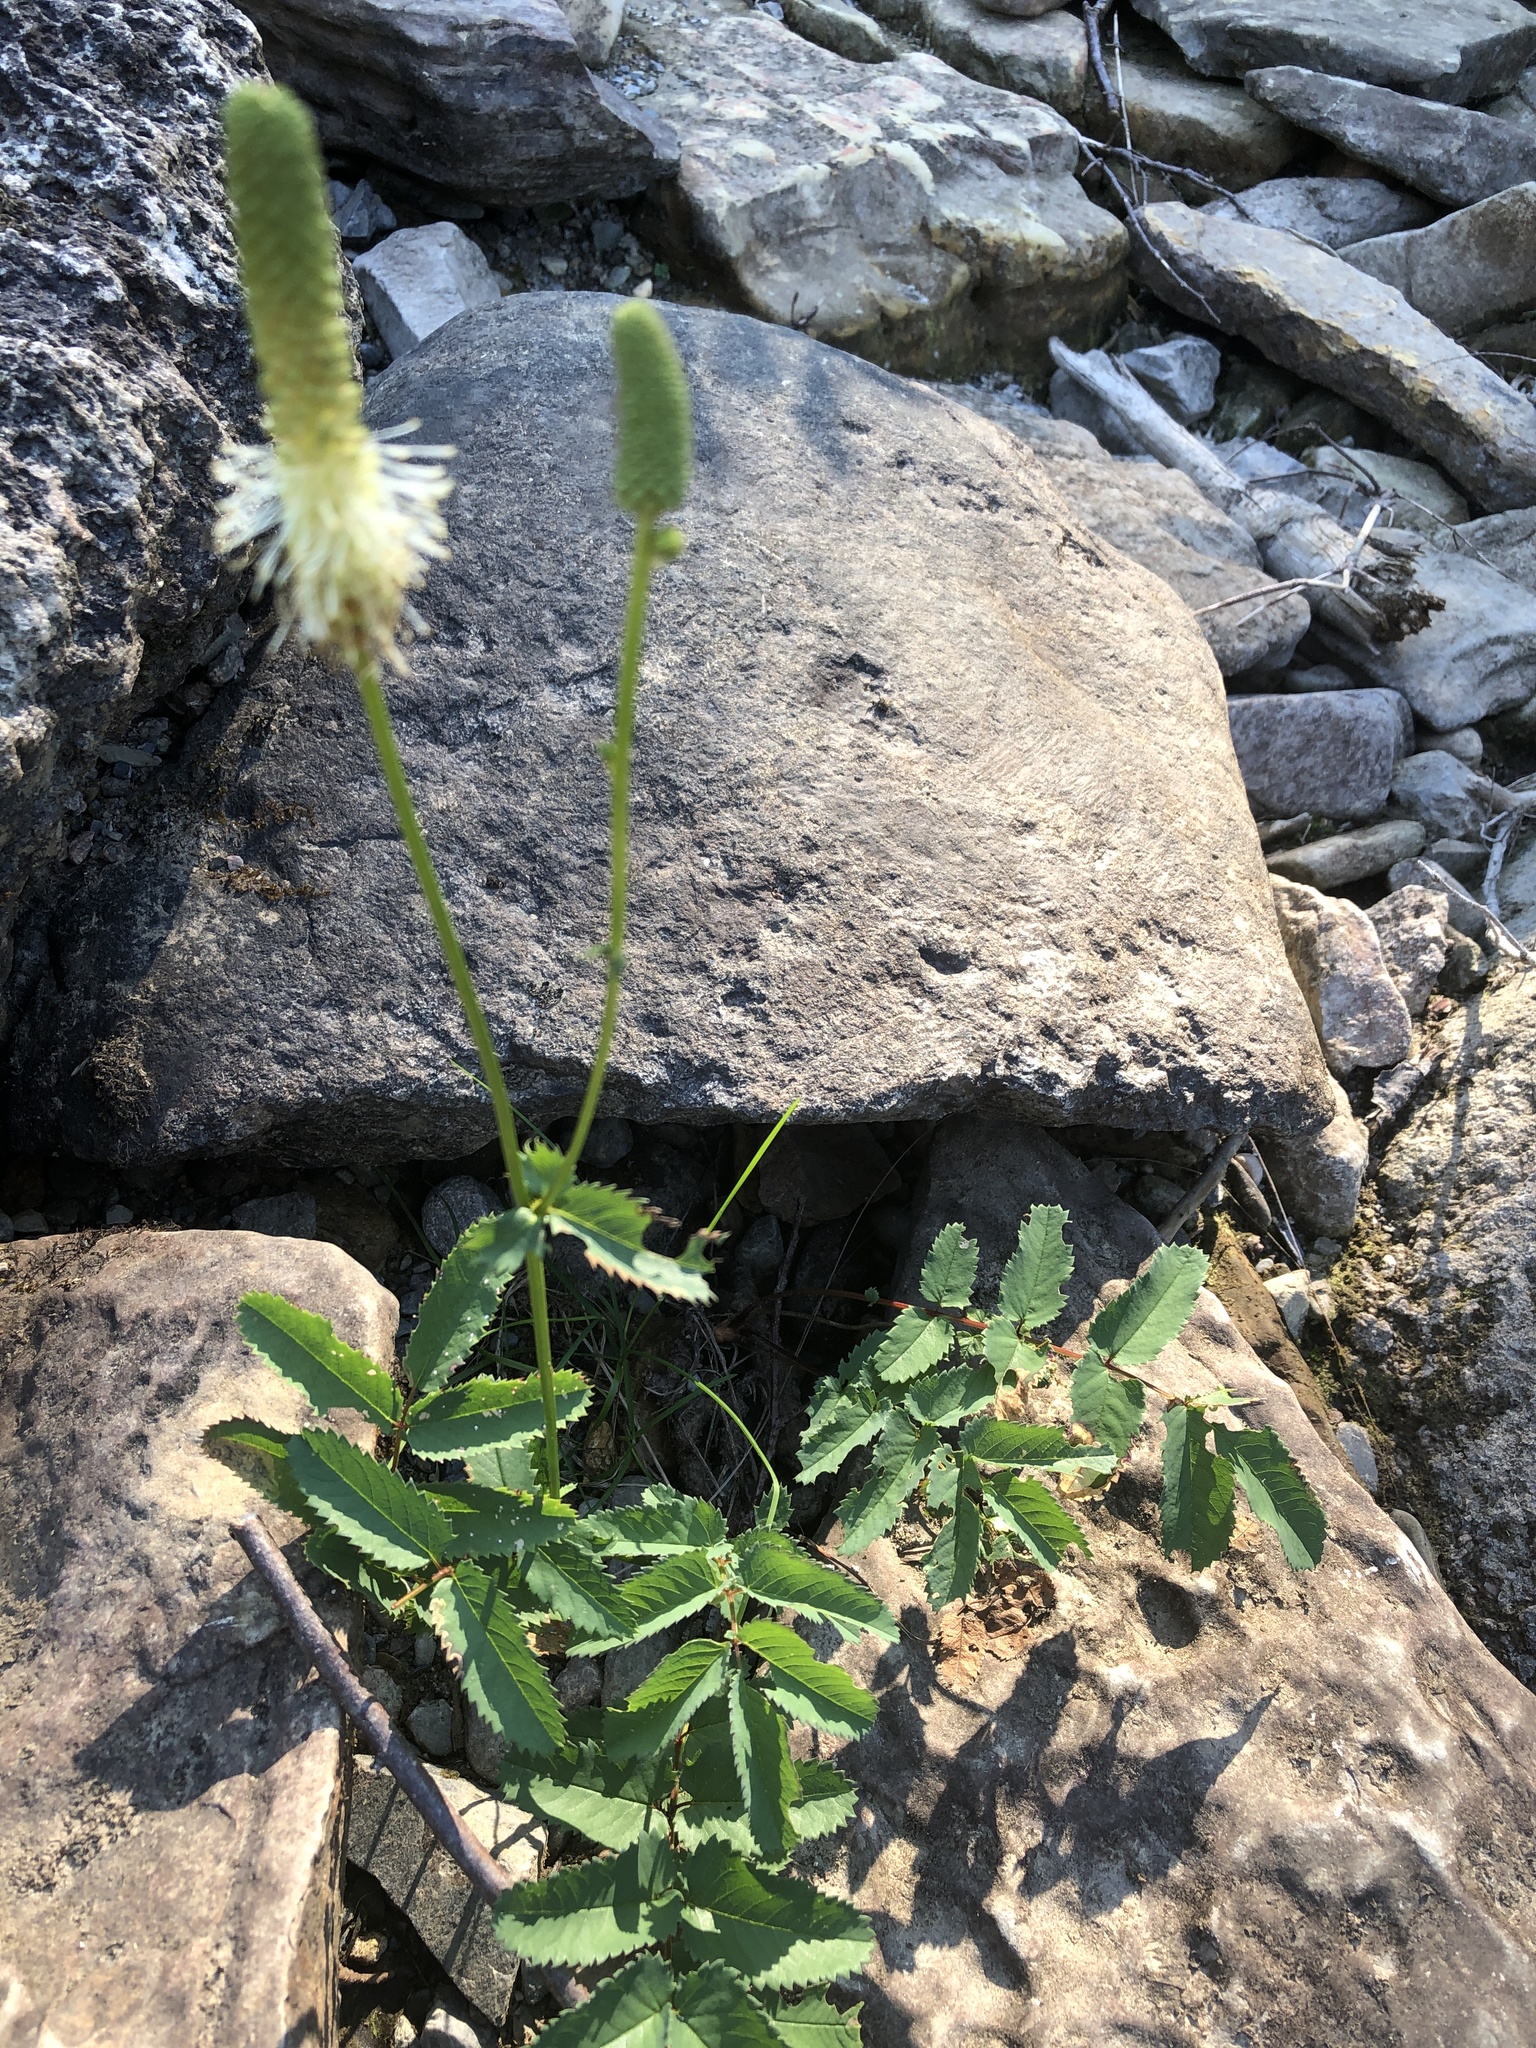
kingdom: Plantae
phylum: Tracheophyta
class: Magnoliopsida
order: Rosales
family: Rosaceae
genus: Sanguisorba
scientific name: Sanguisorba canadensis
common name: White burnet
